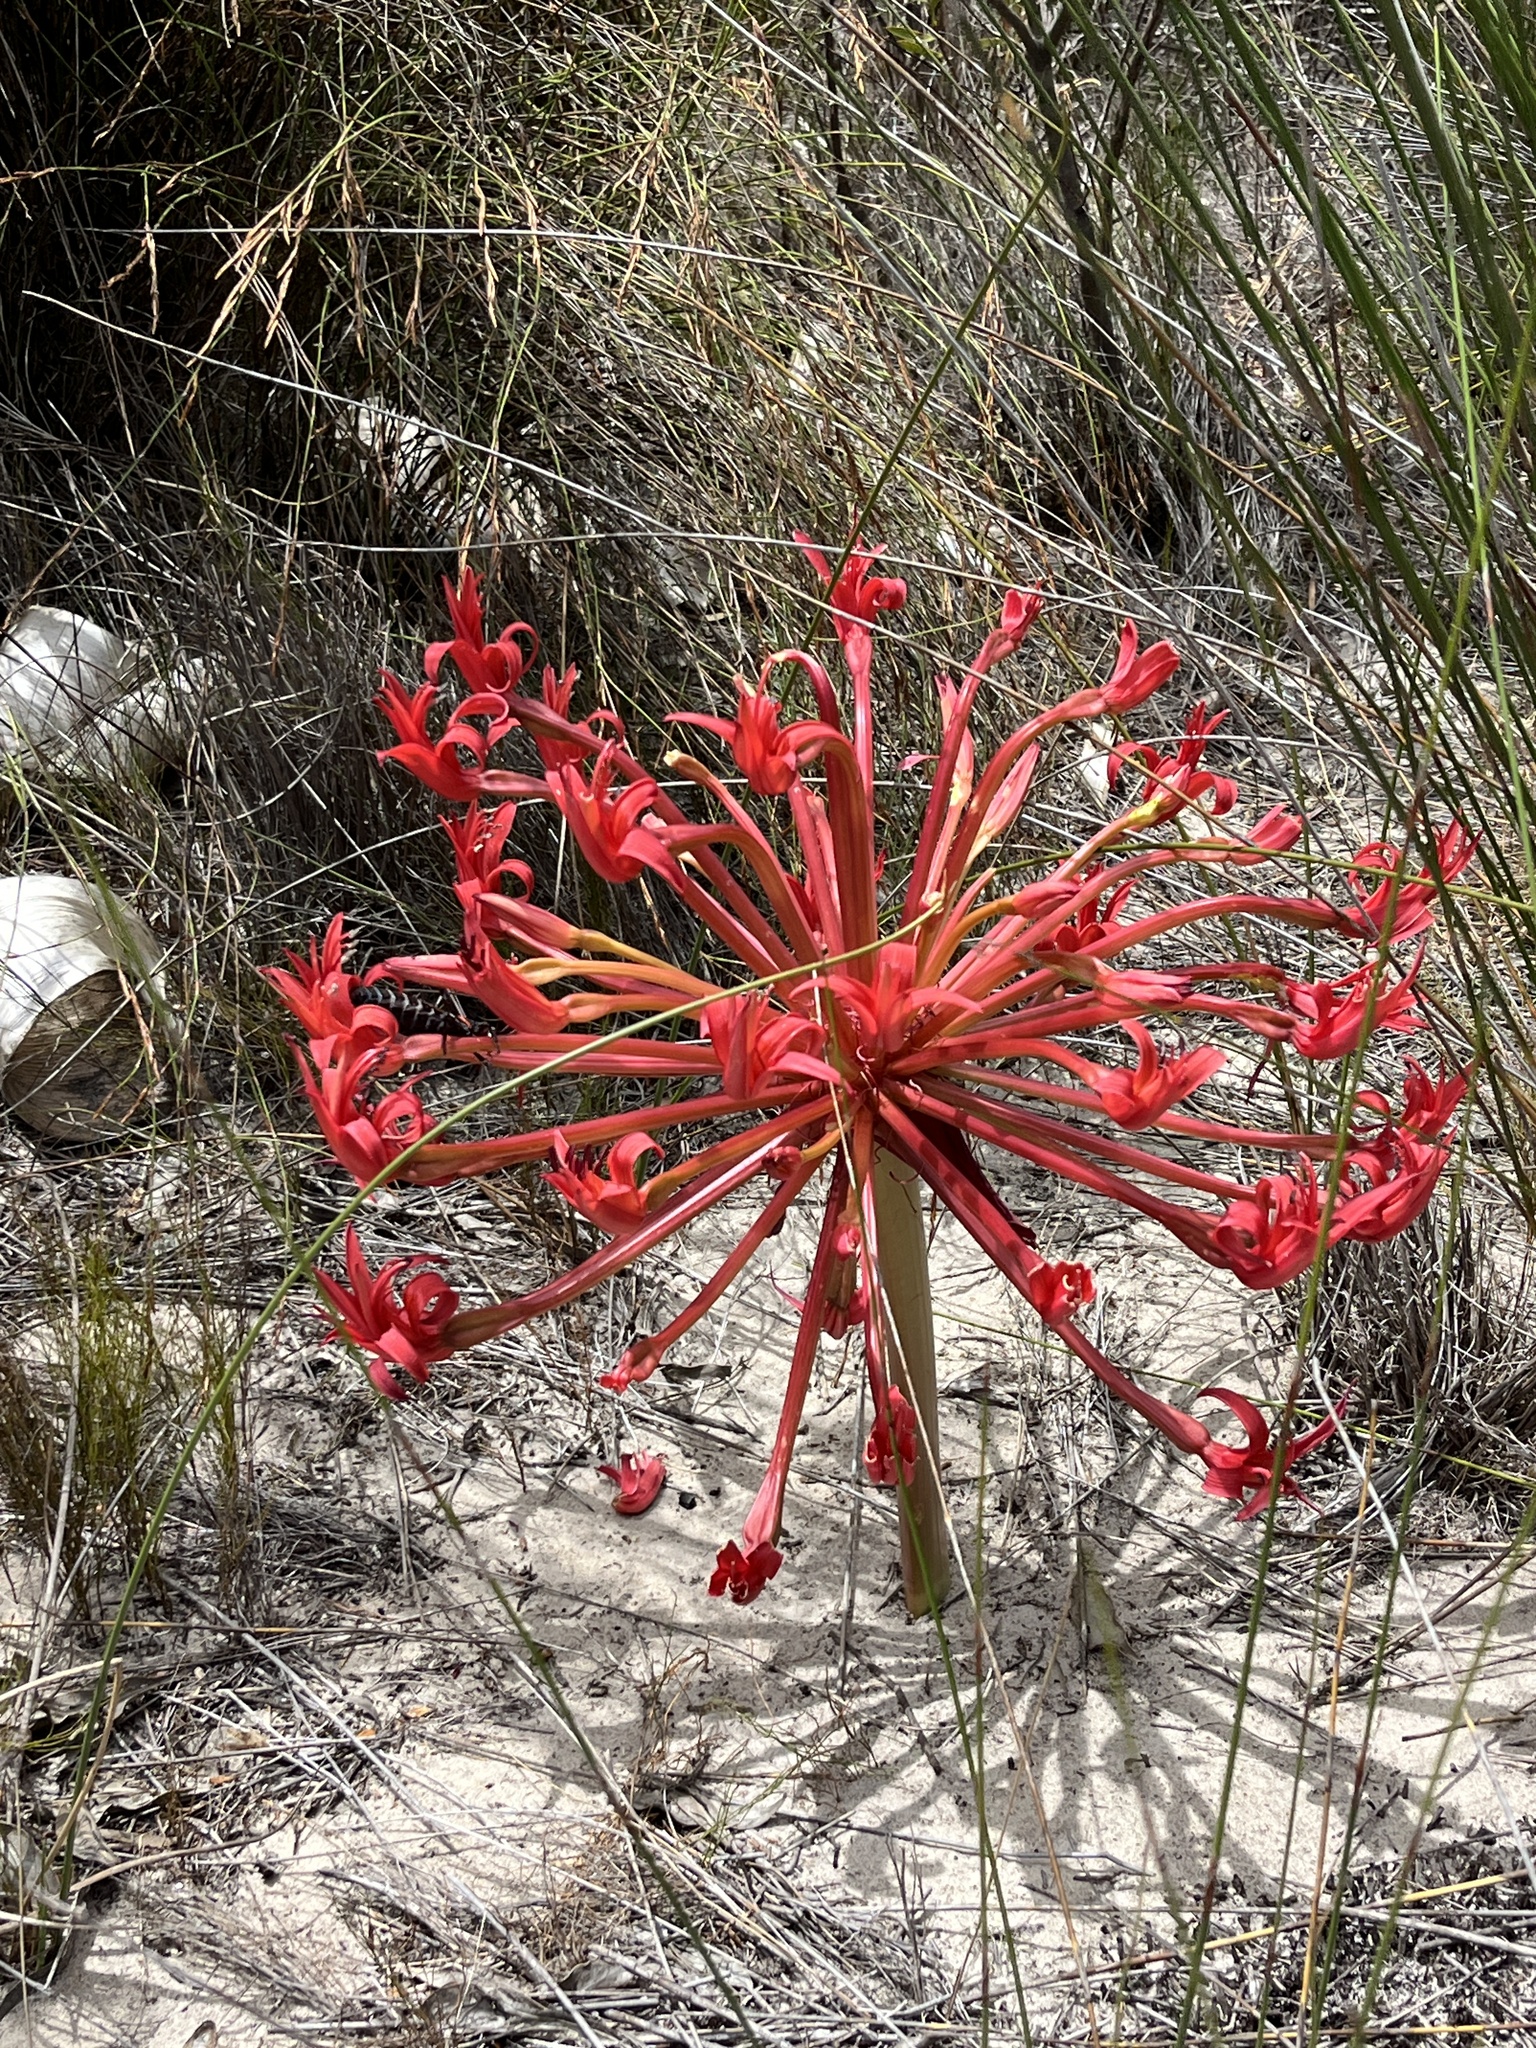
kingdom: Plantae
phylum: Tracheophyta
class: Liliopsida
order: Asparagales
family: Amaryllidaceae
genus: Brunsvigia
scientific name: Brunsvigia orientalis
